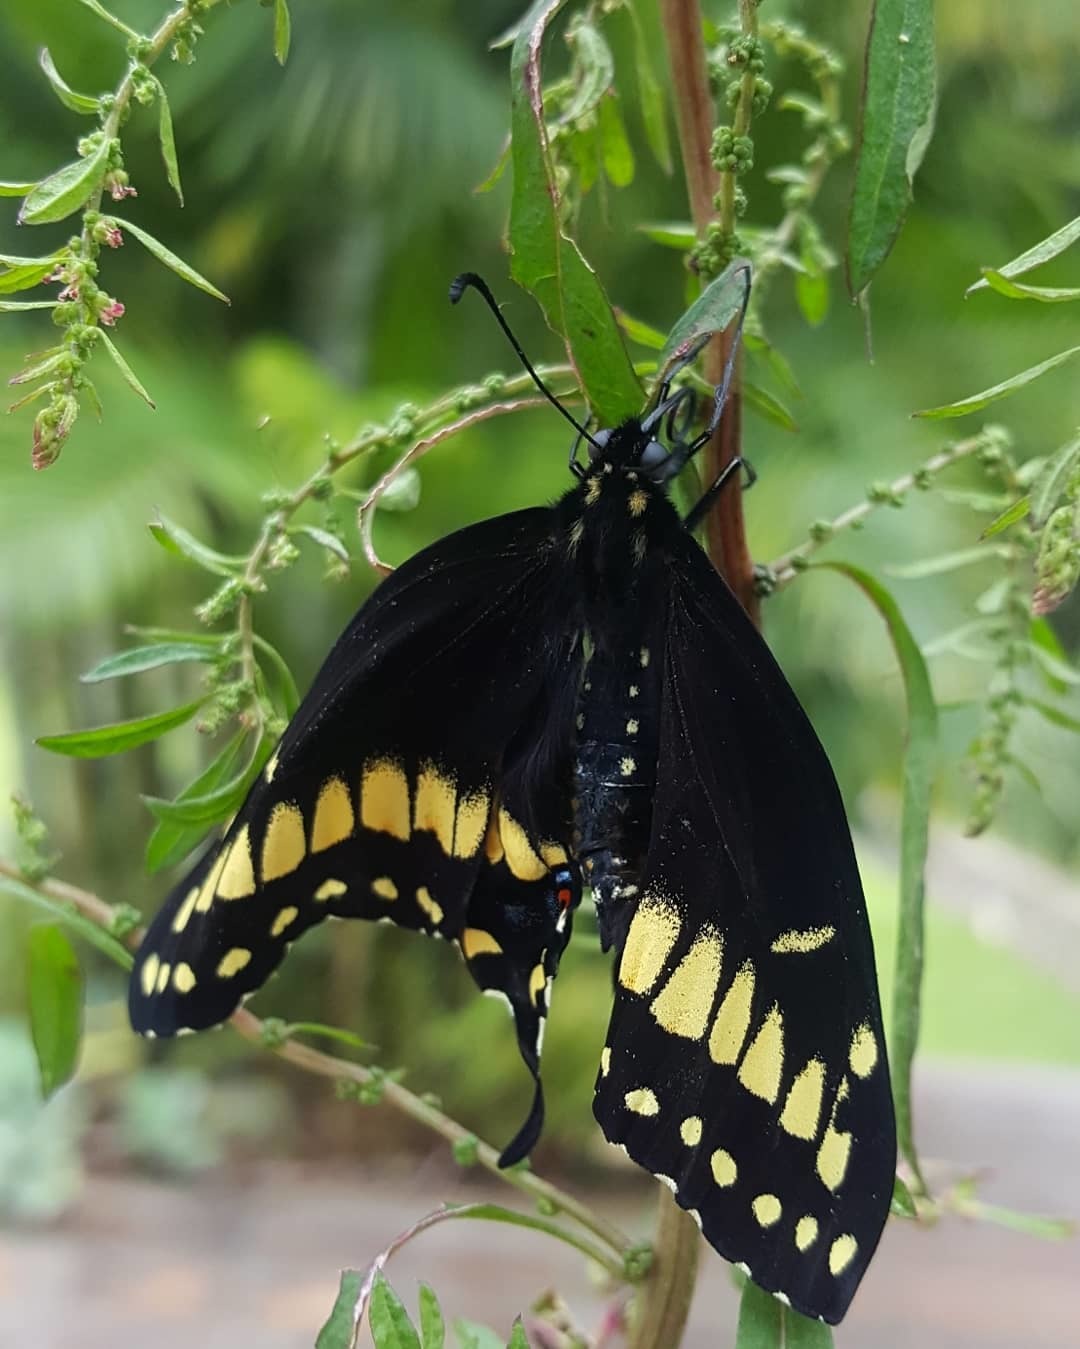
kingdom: Animalia
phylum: Arthropoda
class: Insecta
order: Lepidoptera
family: Papilionidae
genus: Papilio
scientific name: Papilio polyxenes
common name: Black swallowtail
